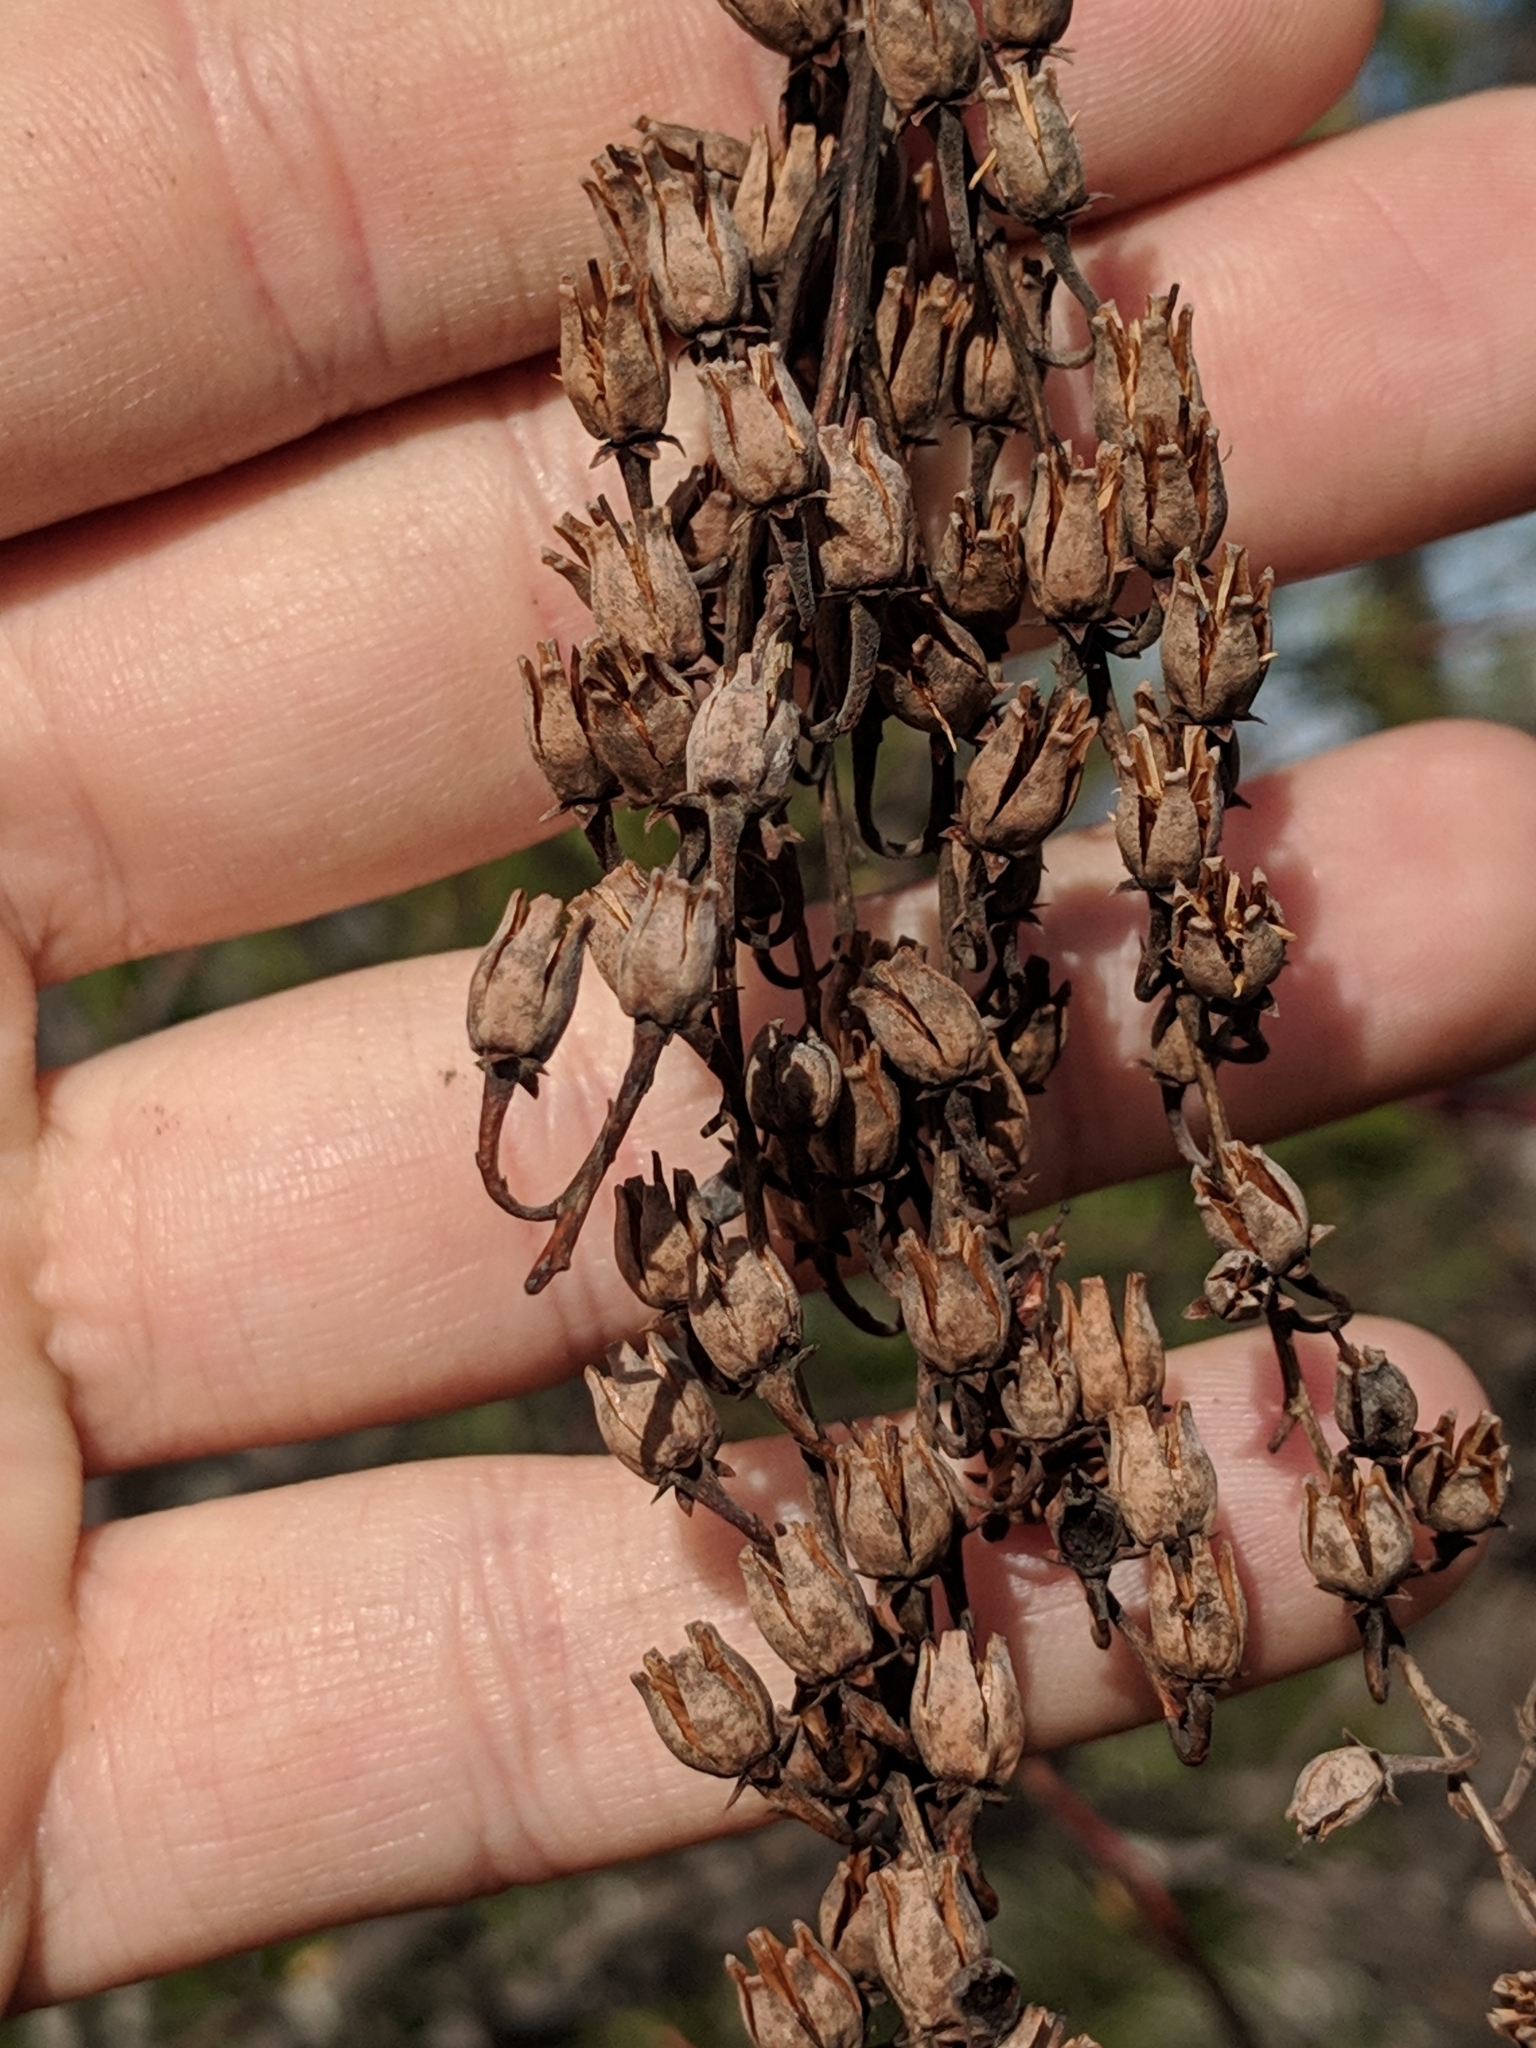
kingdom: Plantae
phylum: Tracheophyta
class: Magnoliopsida
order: Ericales
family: Ericaceae
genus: Oxydendrum
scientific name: Oxydendrum arboreum
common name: Sourwood
